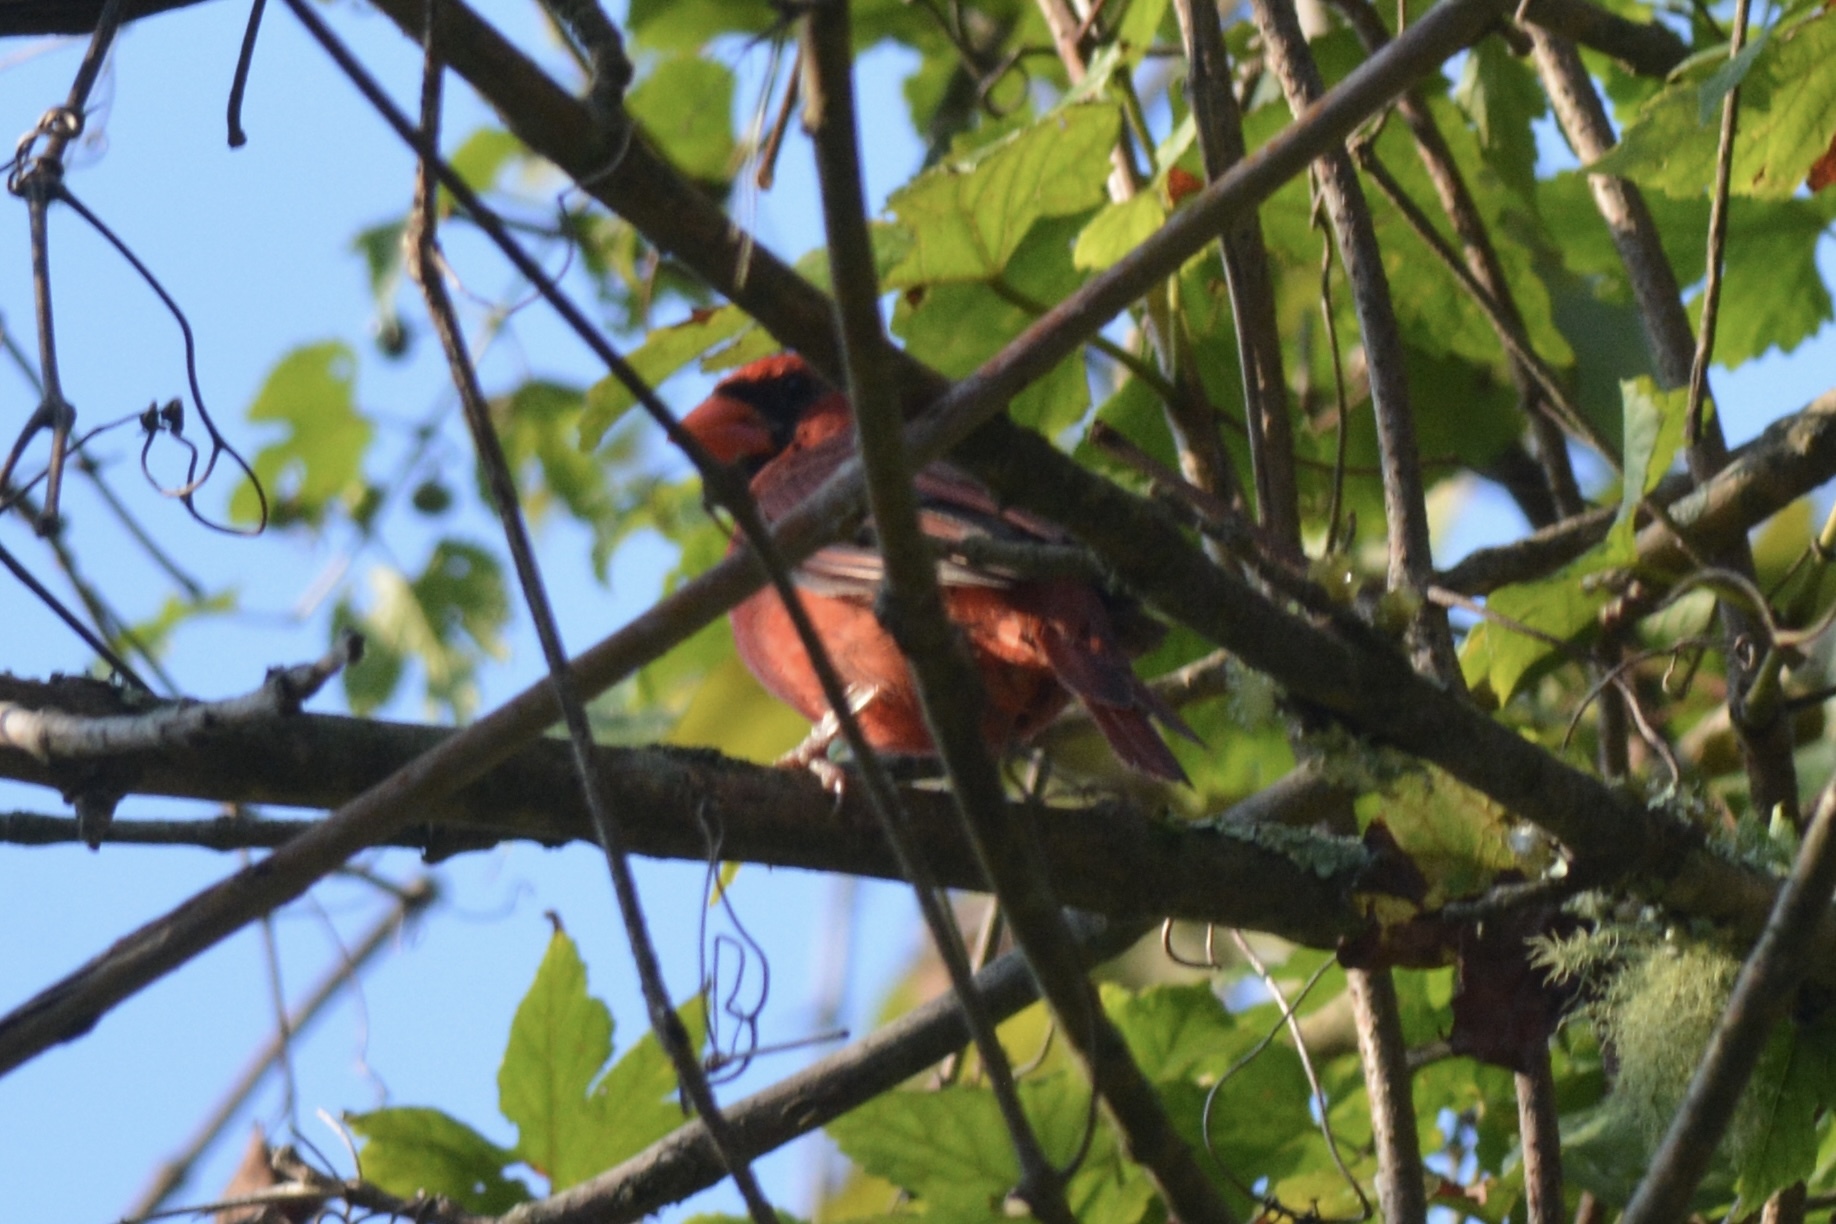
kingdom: Animalia
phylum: Chordata
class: Aves
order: Passeriformes
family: Cardinalidae
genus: Cardinalis
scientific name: Cardinalis cardinalis
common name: Northern cardinal
